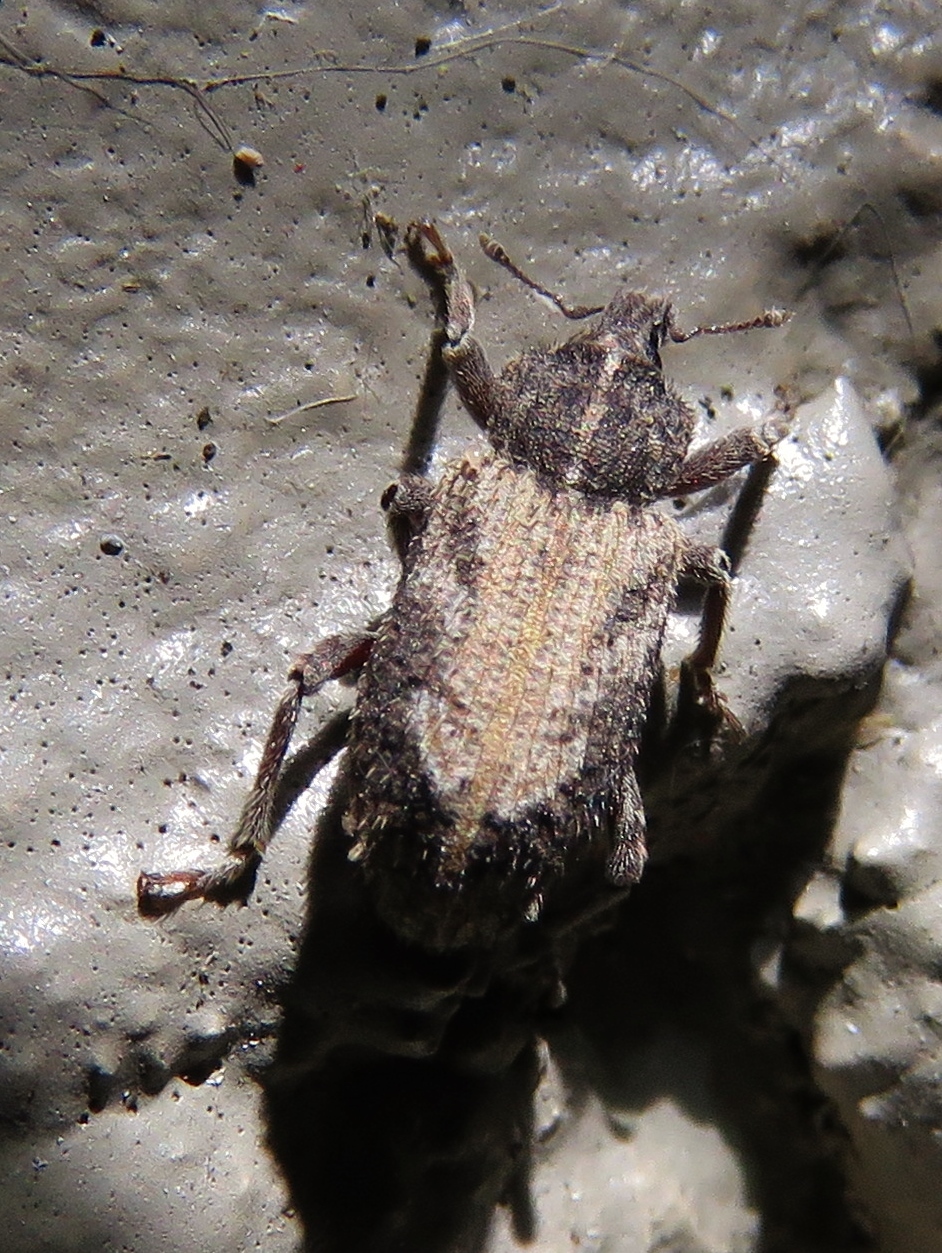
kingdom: Animalia
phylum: Arthropoda
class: Insecta
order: Coleoptera
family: Curculionidae
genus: Listroderes
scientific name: Listroderes costirostris
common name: Weevil
